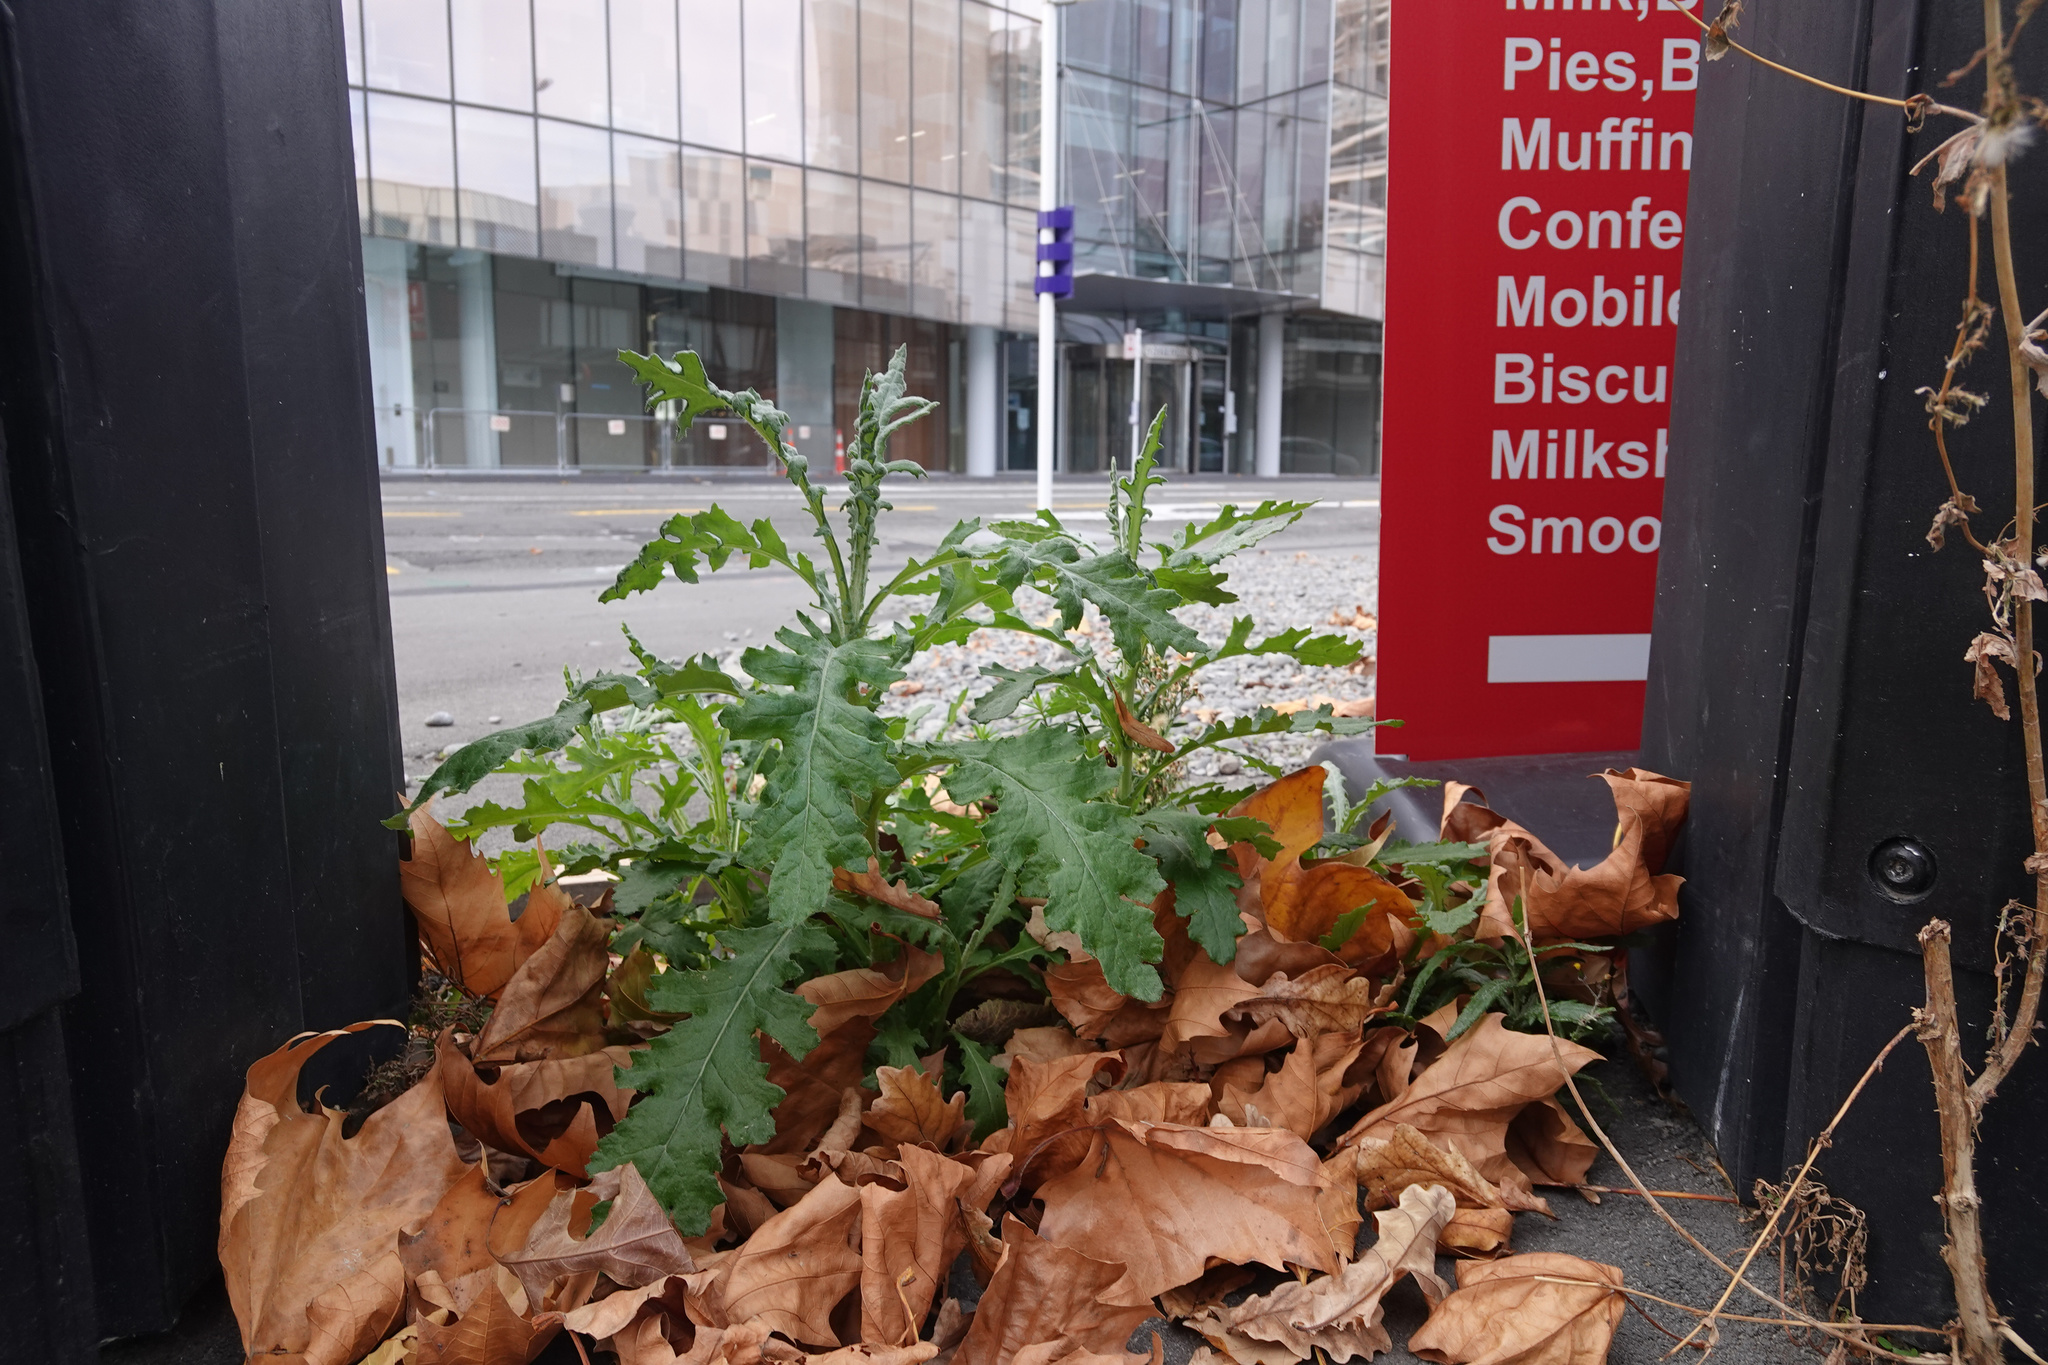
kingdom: Plantae
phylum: Tracheophyta
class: Magnoliopsida
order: Asterales
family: Asteraceae
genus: Senecio
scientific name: Senecio glomeratus
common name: Cutleaf burnweed
